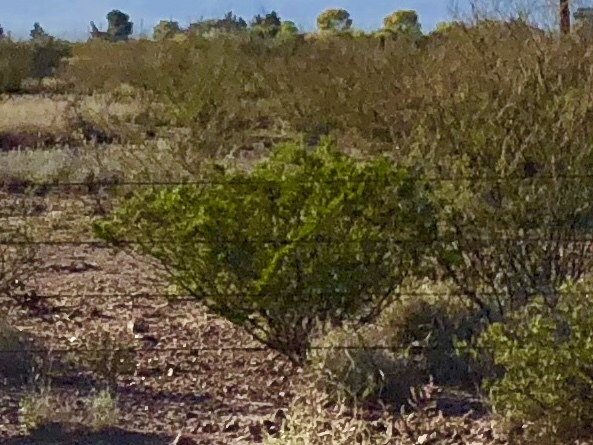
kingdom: Plantae
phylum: Tracheophyta
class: Magnoliopsida
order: Zygophyllales
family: Zygophyllaceae
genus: Larrea
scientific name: Larrea tridentata
